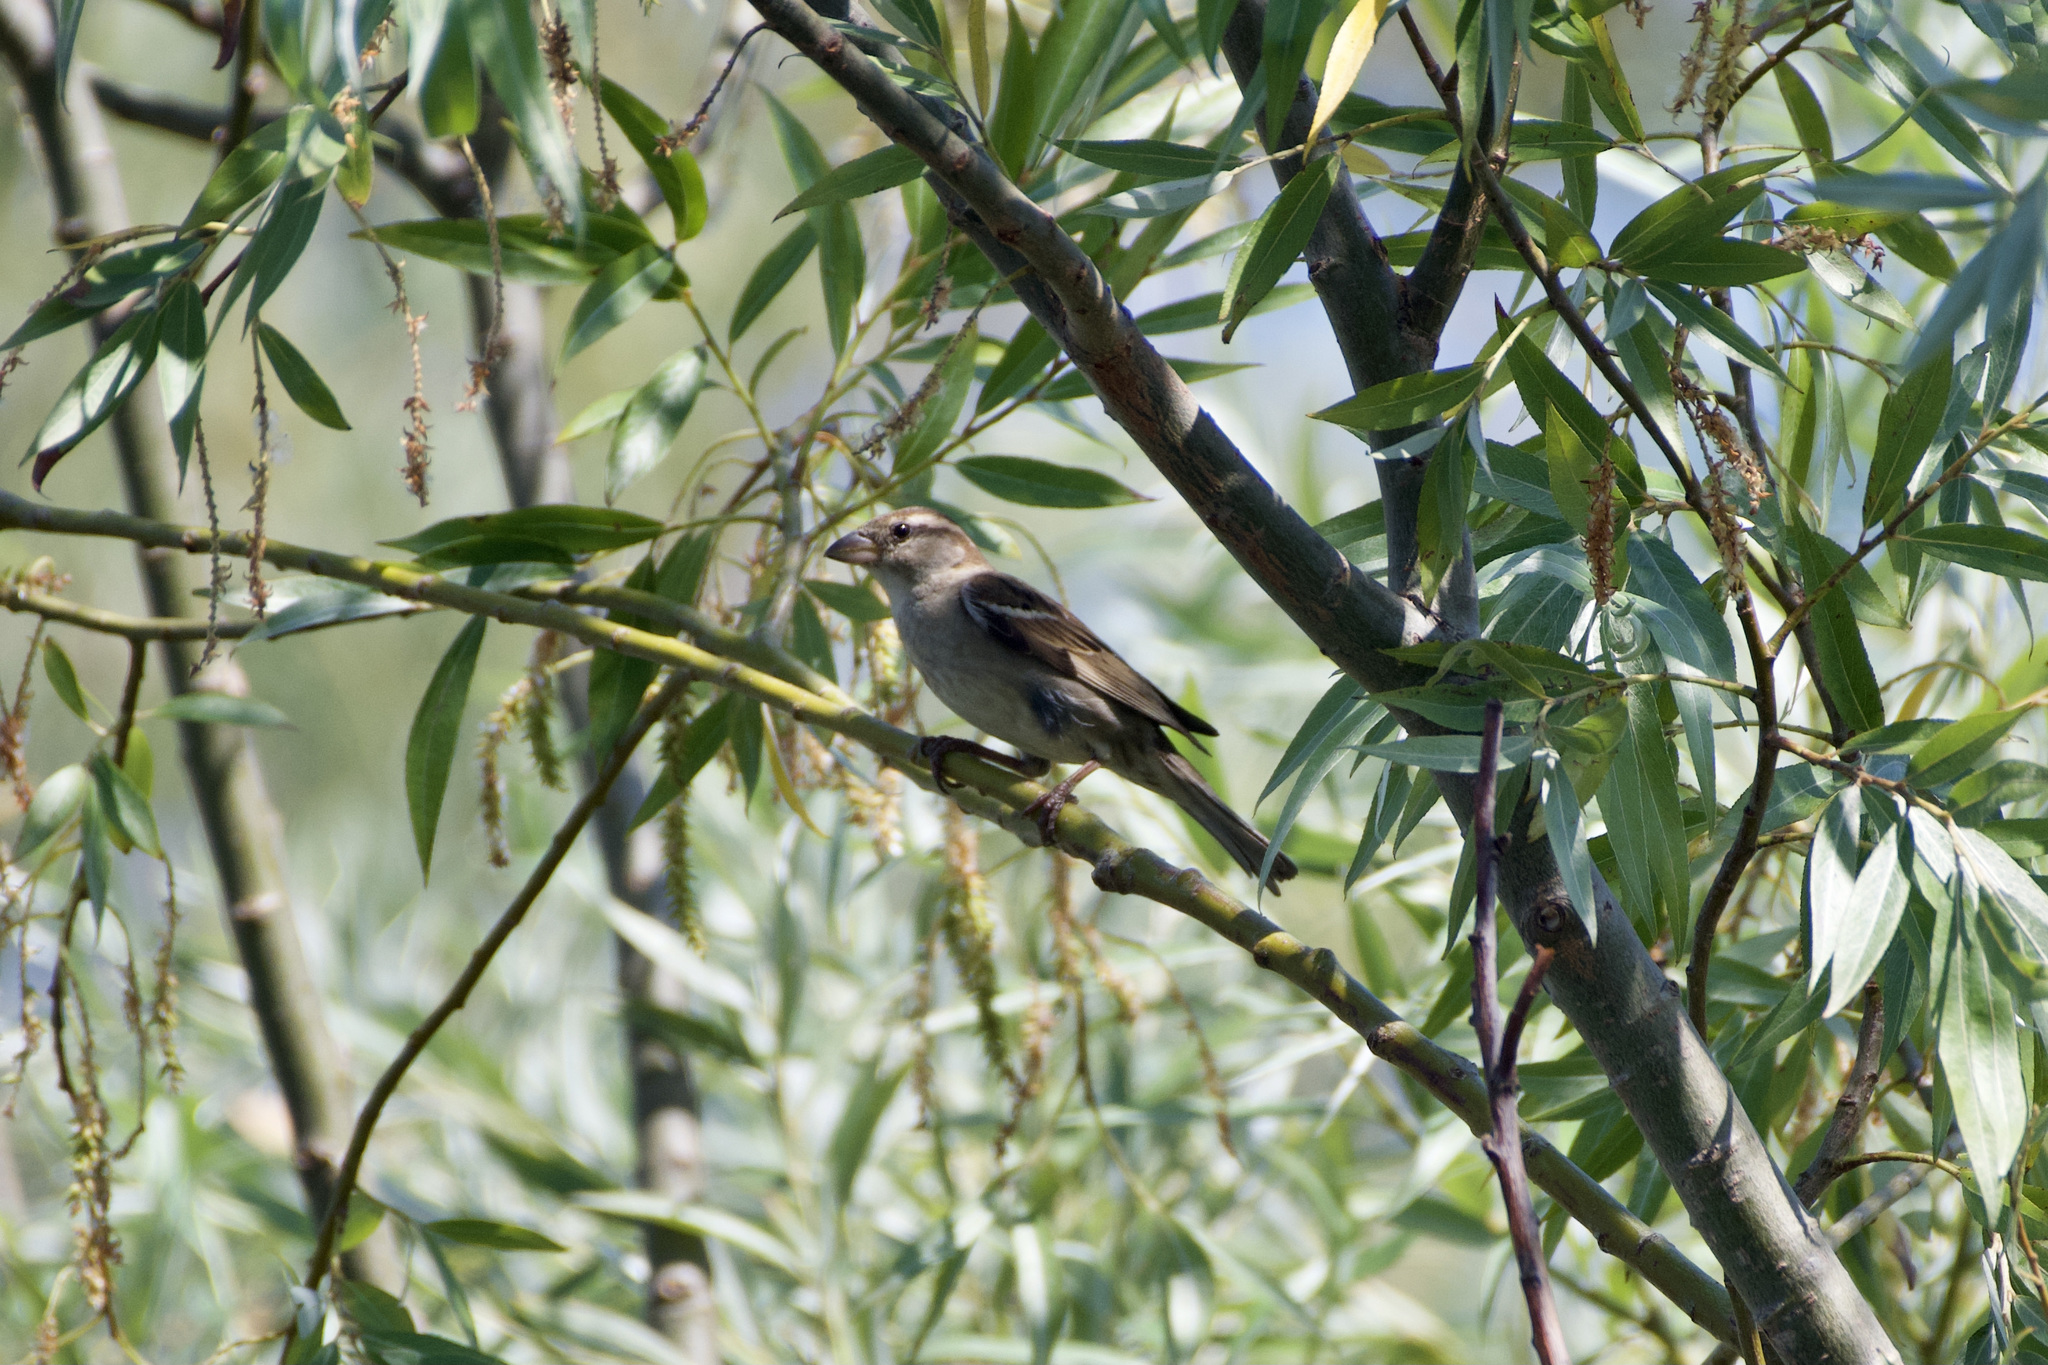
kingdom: Animalia
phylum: Chordata
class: Aves
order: Passeriformes
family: Passeridae
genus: Passer
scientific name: Passer italiae
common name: Italian sparrow
